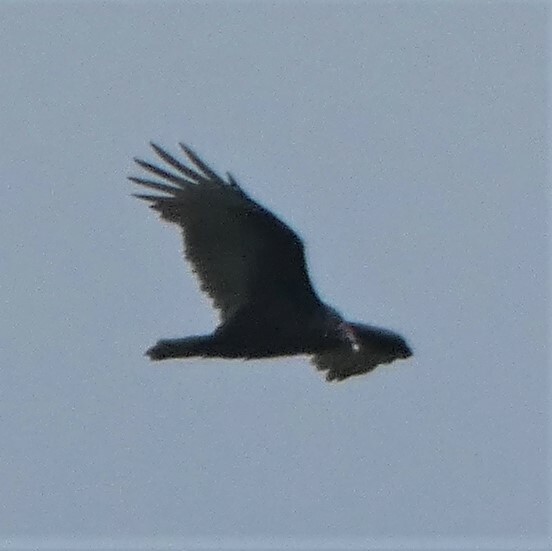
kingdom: Animalia
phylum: Chordata
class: Aves
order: Accipitriformes
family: Cathartidae
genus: Cathartes
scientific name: Cathartes aura
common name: Turkey vulture
